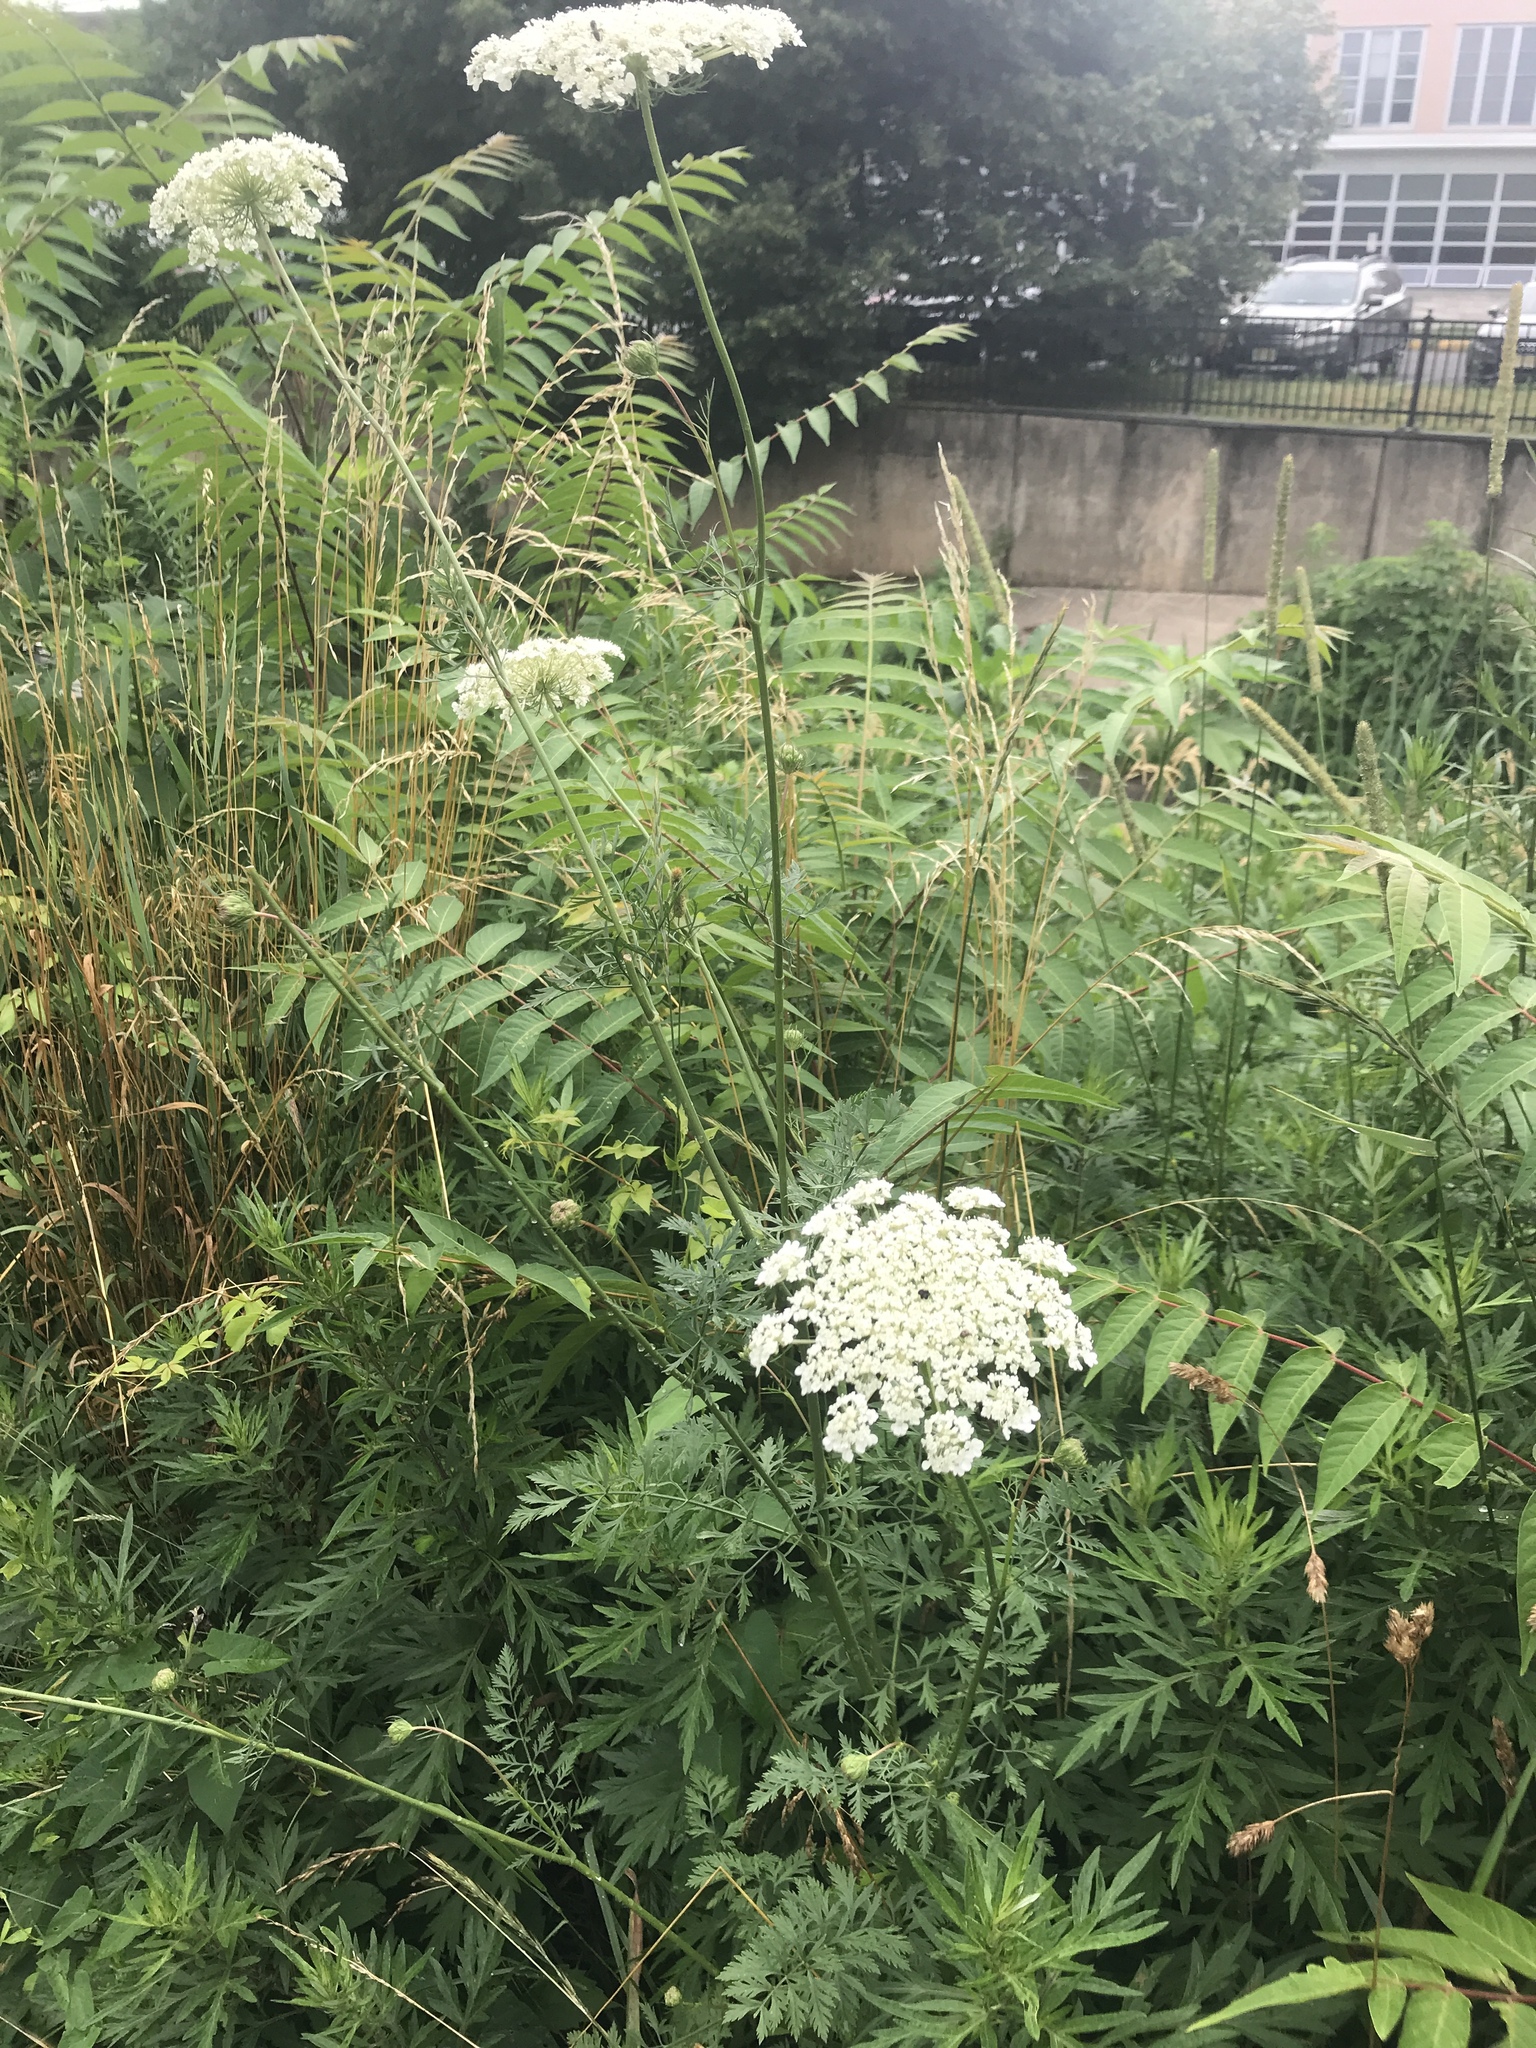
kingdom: Plantae
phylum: Tracheophyta
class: Magnoliopsida
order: Apiales
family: Apiaceae
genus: Daucus
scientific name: Daucus carota
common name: Wild carrot
